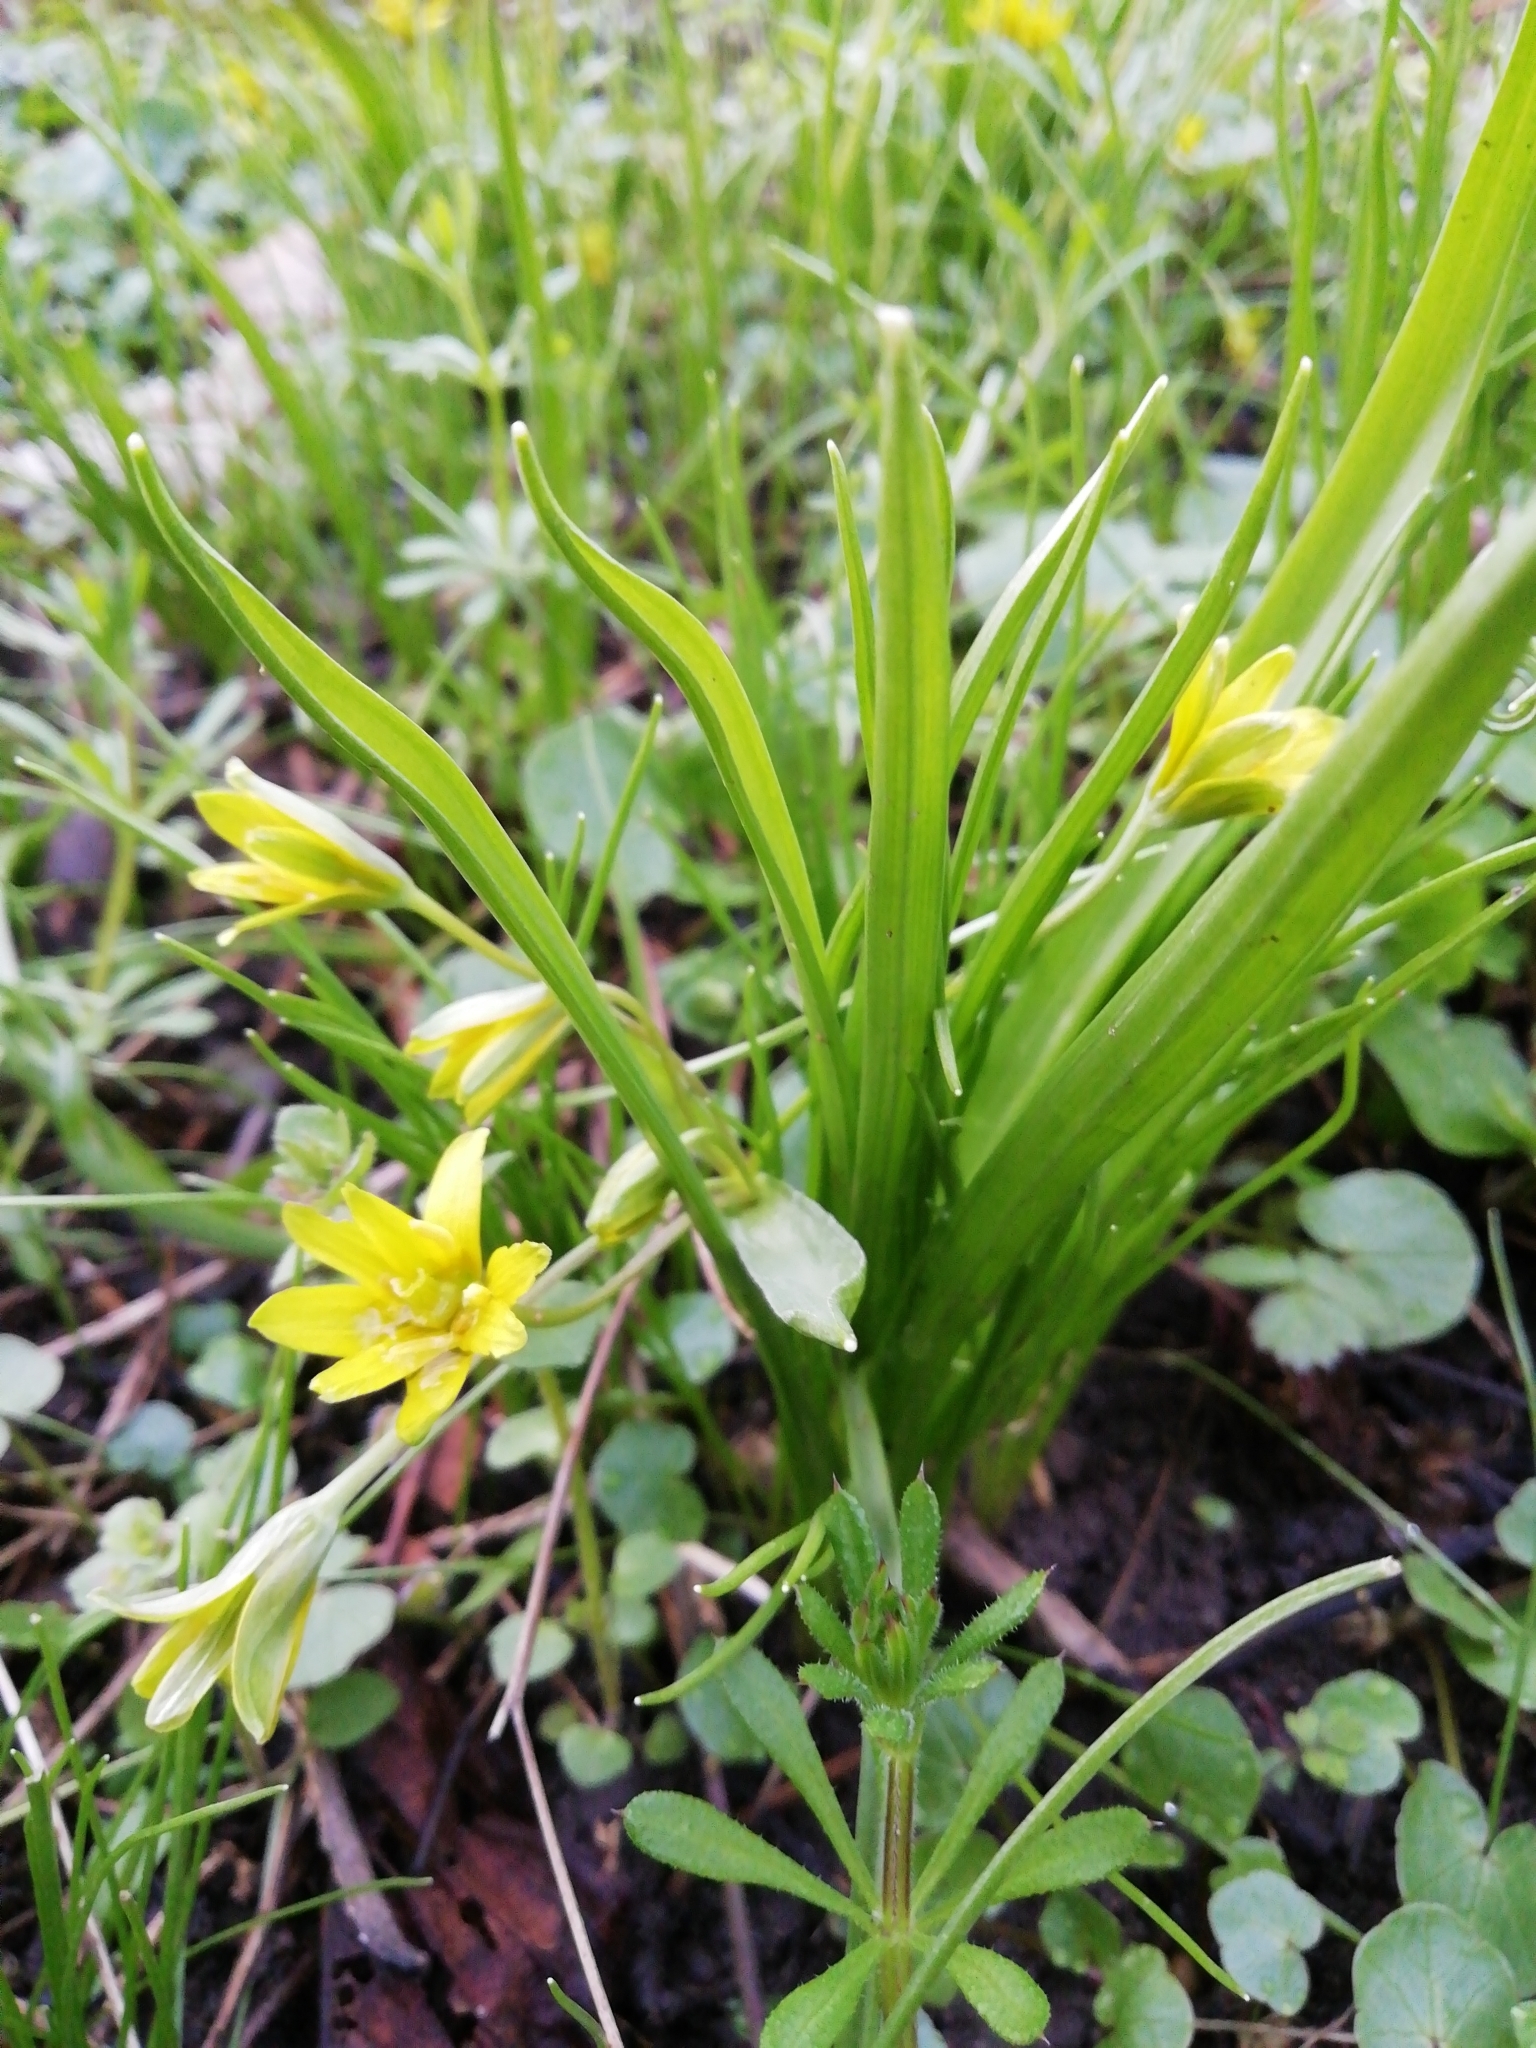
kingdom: Plantae
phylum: Tracheophyta
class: Liliopsida
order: Liliales
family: Liliaceae
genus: Gagea
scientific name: Gagea lutea
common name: Yellow star-of-bethlehem
